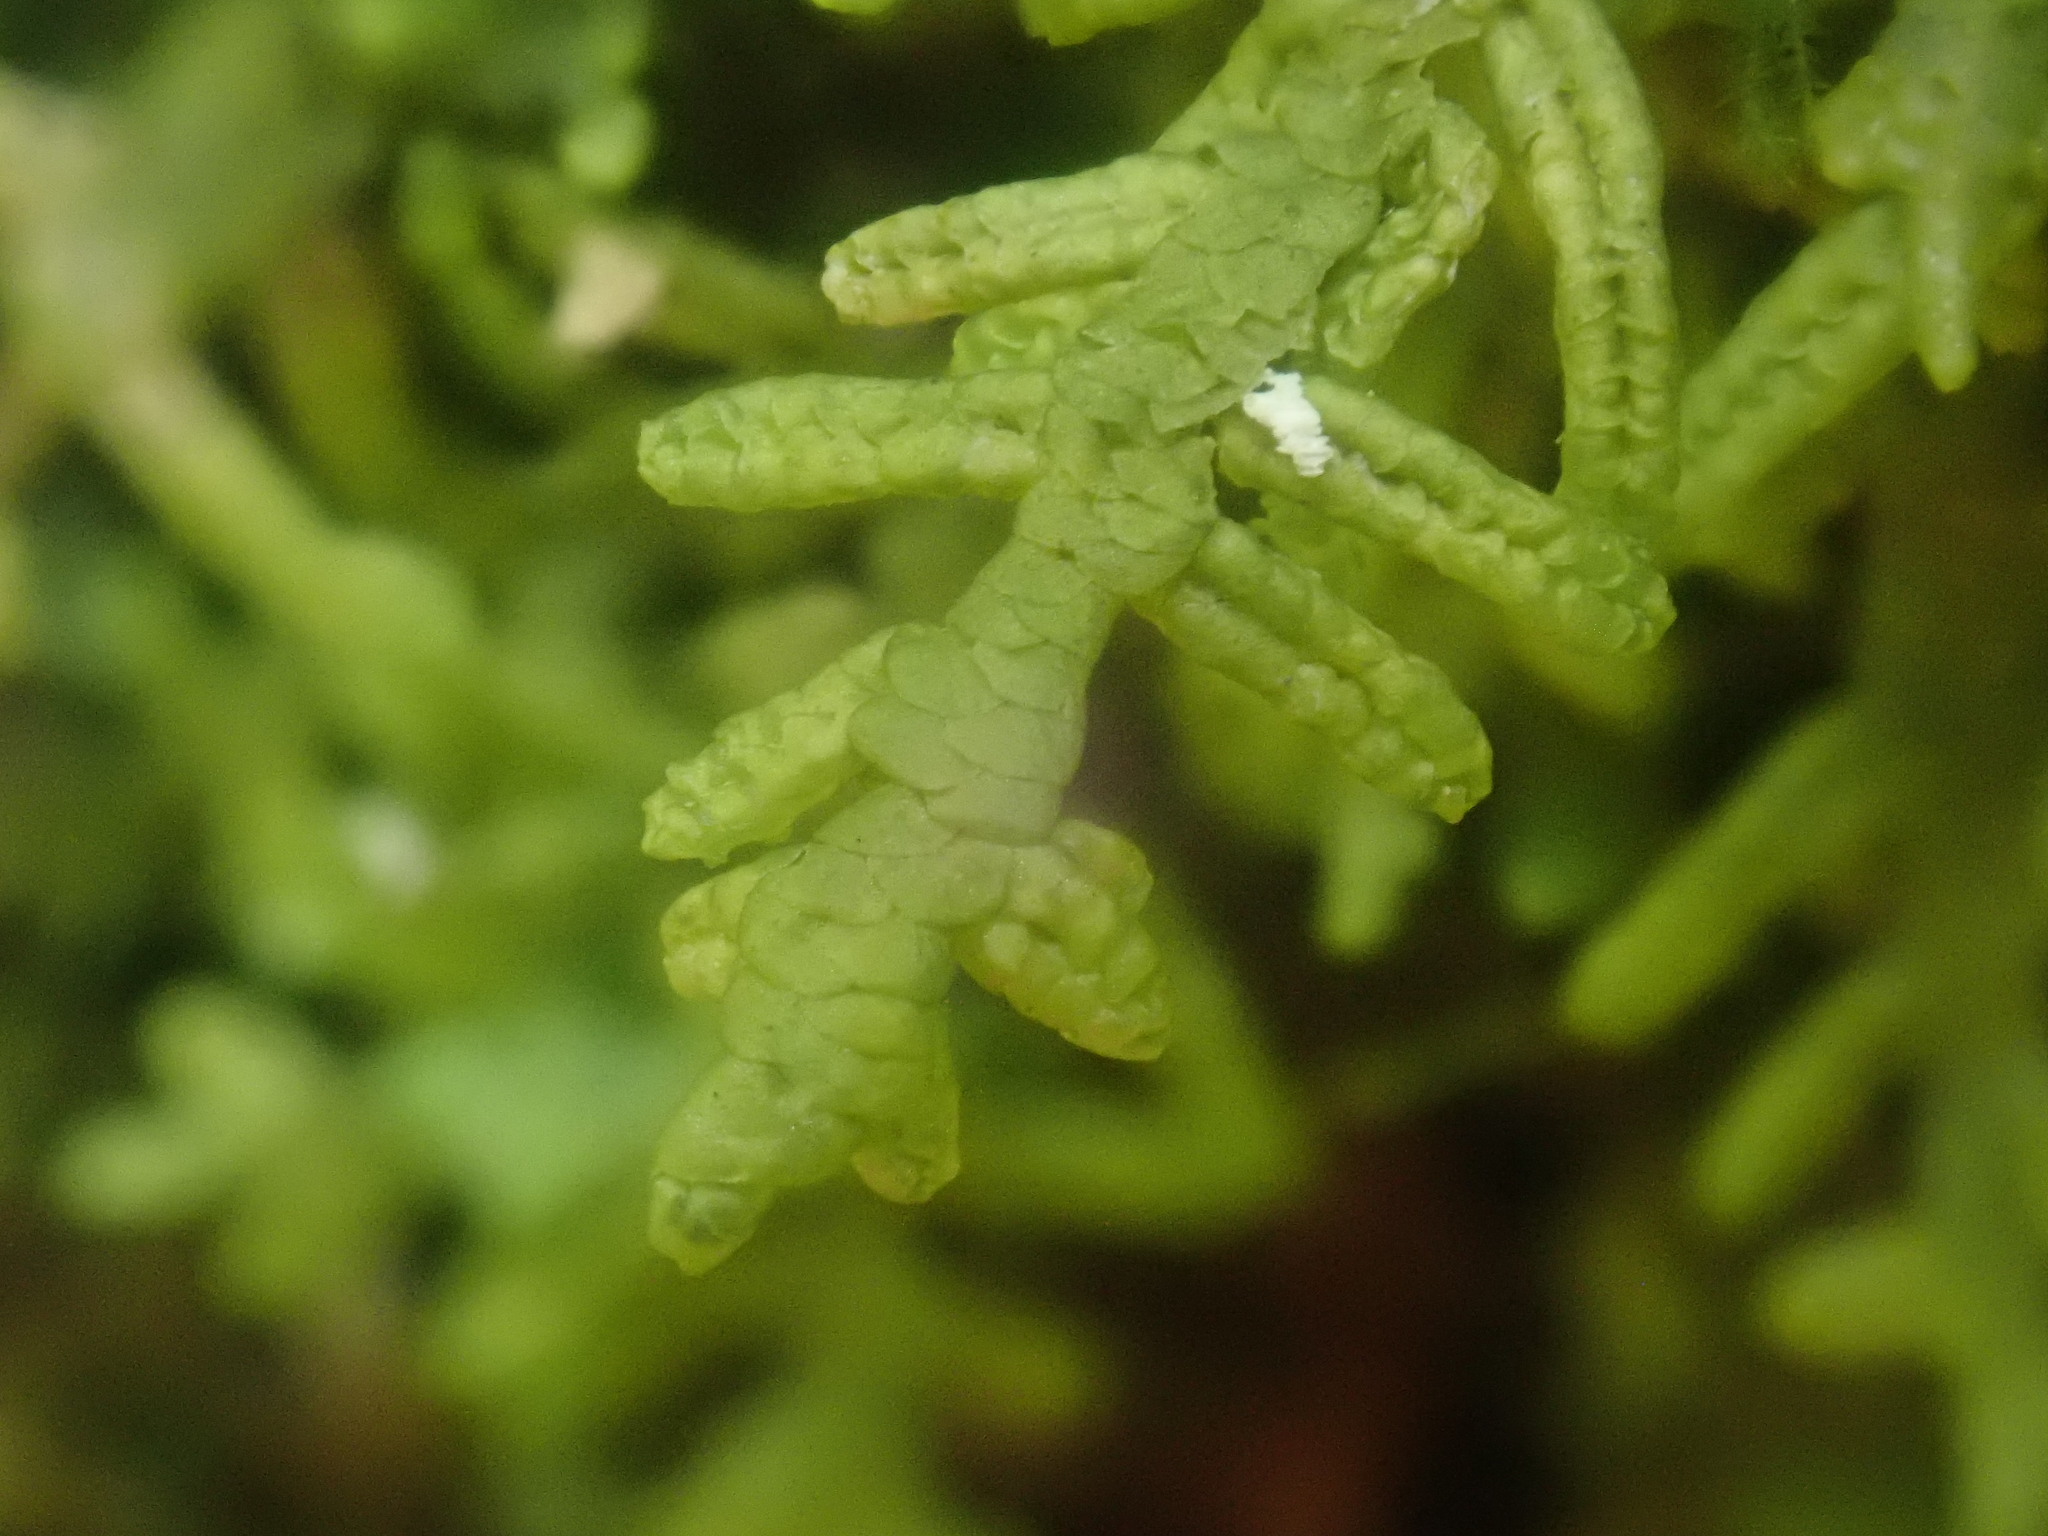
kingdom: Plantae
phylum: Marchantiophyta
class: Jungermanniopsida
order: Porellales
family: Porellaceae
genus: Porella
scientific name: Porella platyphylla
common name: Wall scalewort
